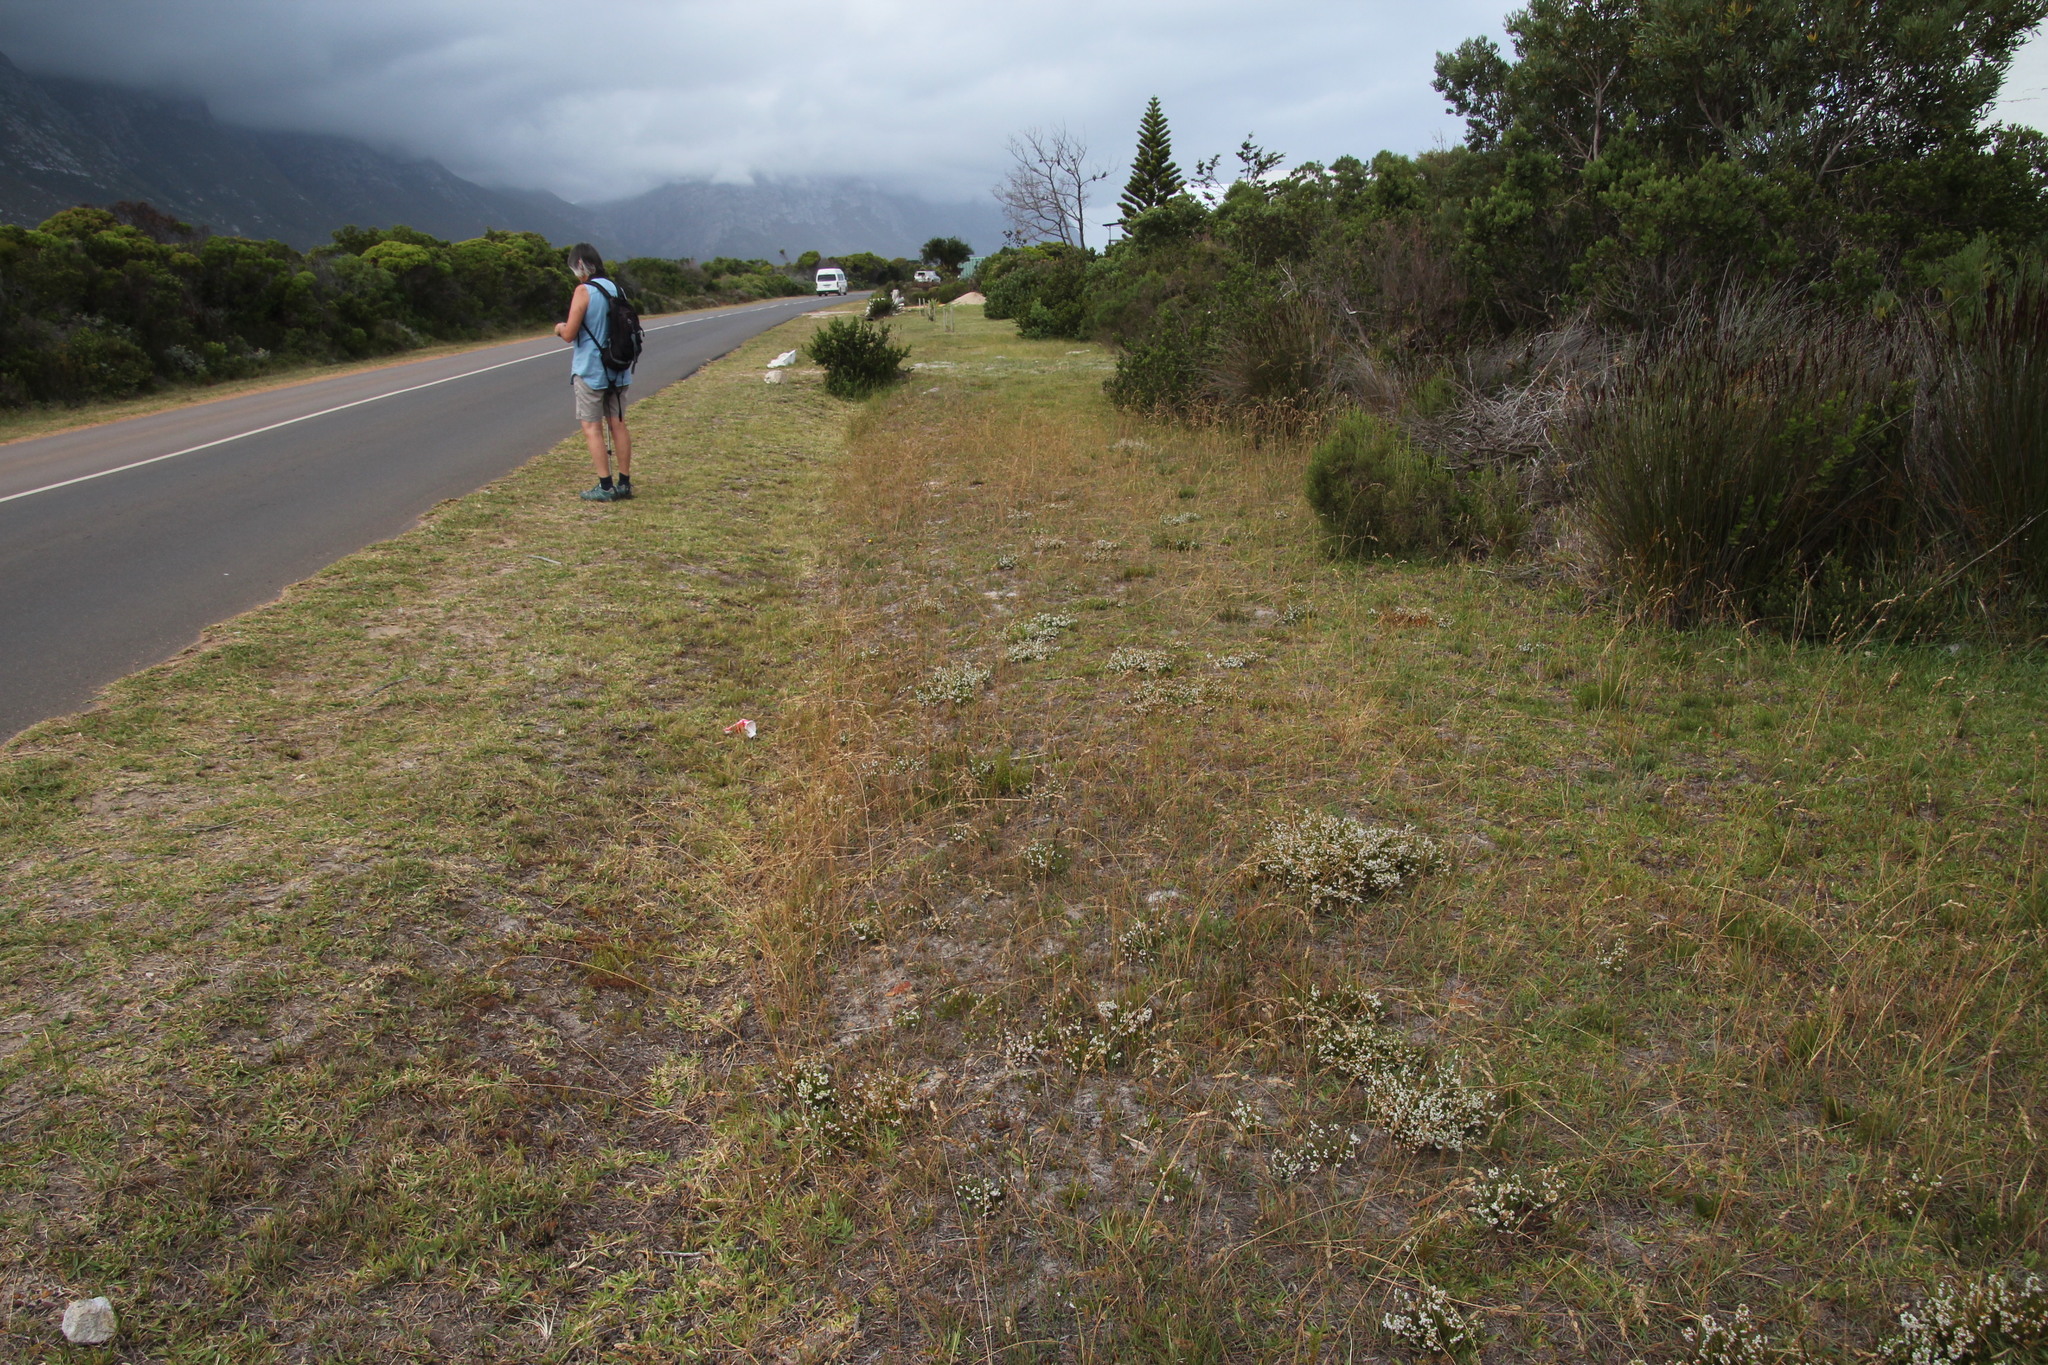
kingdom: Plantae
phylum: Tracheophyta
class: Magnoliopsida
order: Ericales
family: Ericaceae
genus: Erica
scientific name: Erica subdivaricata
